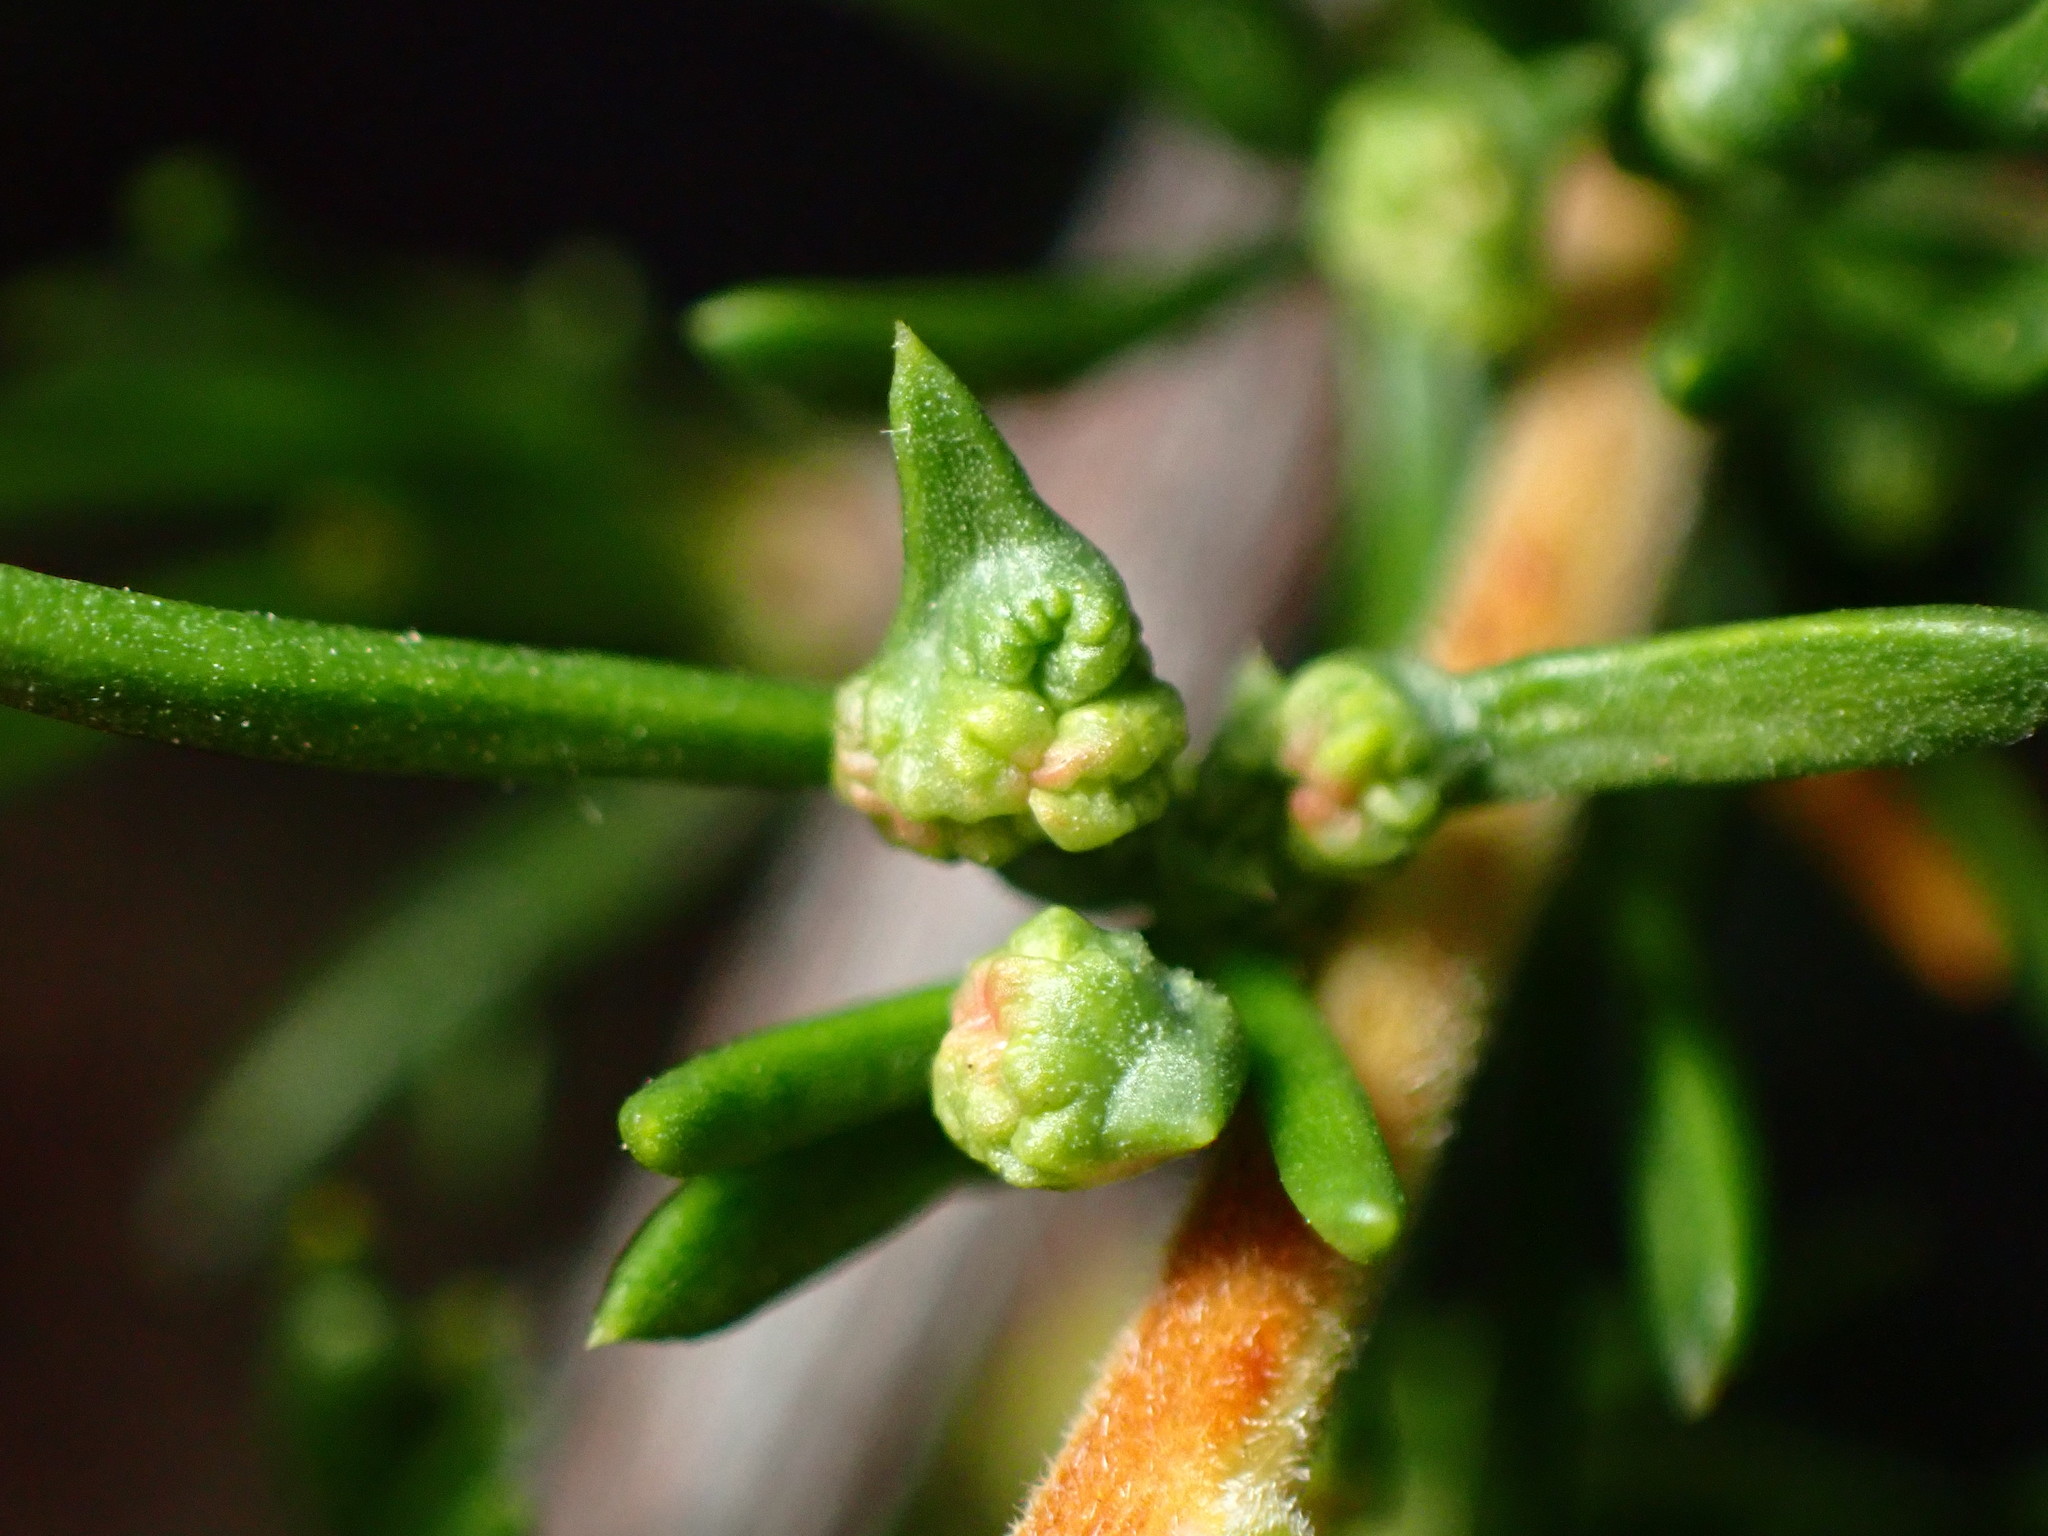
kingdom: Animalia
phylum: Arthropoda
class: Arachnida
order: Trombidiformes
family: Eriophyidae
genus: Eriophyes
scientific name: Eriophyes
